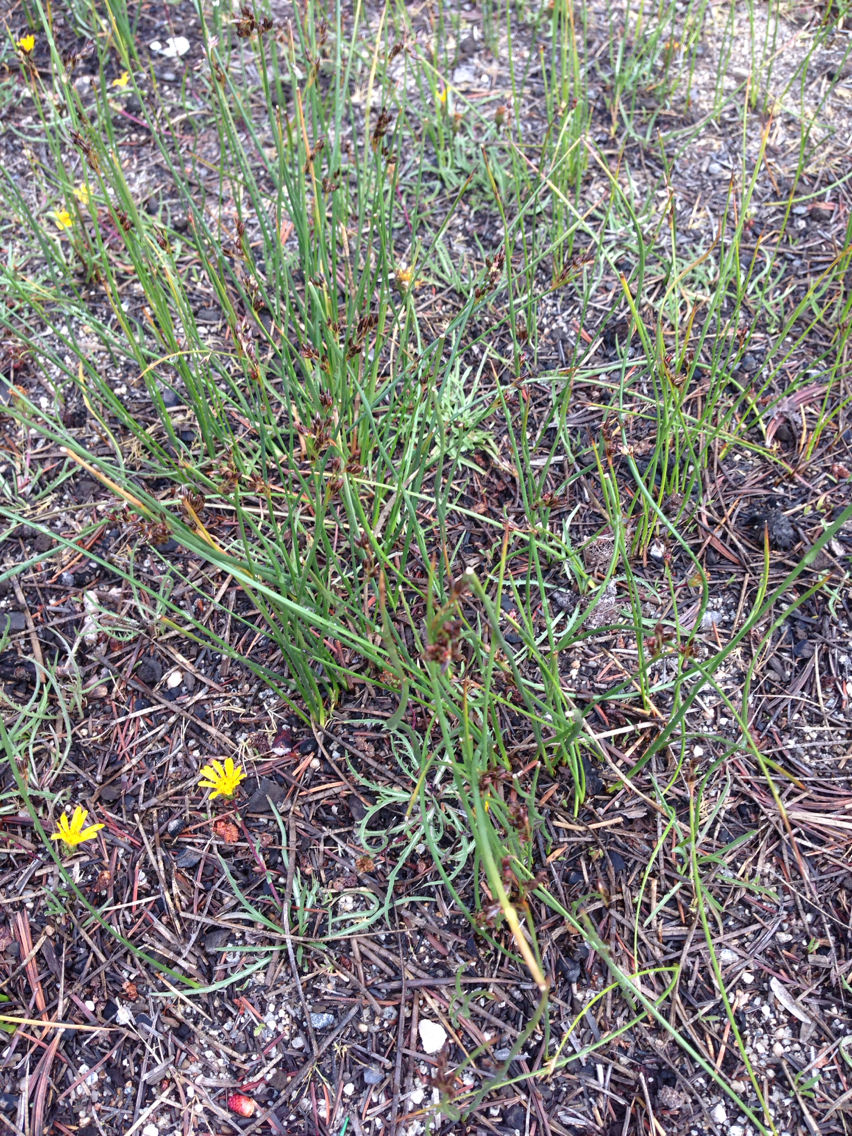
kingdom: Plantae
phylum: Tracheophyta
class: Liliopsida
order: Poales
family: Juncaceae
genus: Juncus
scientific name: Juncus
